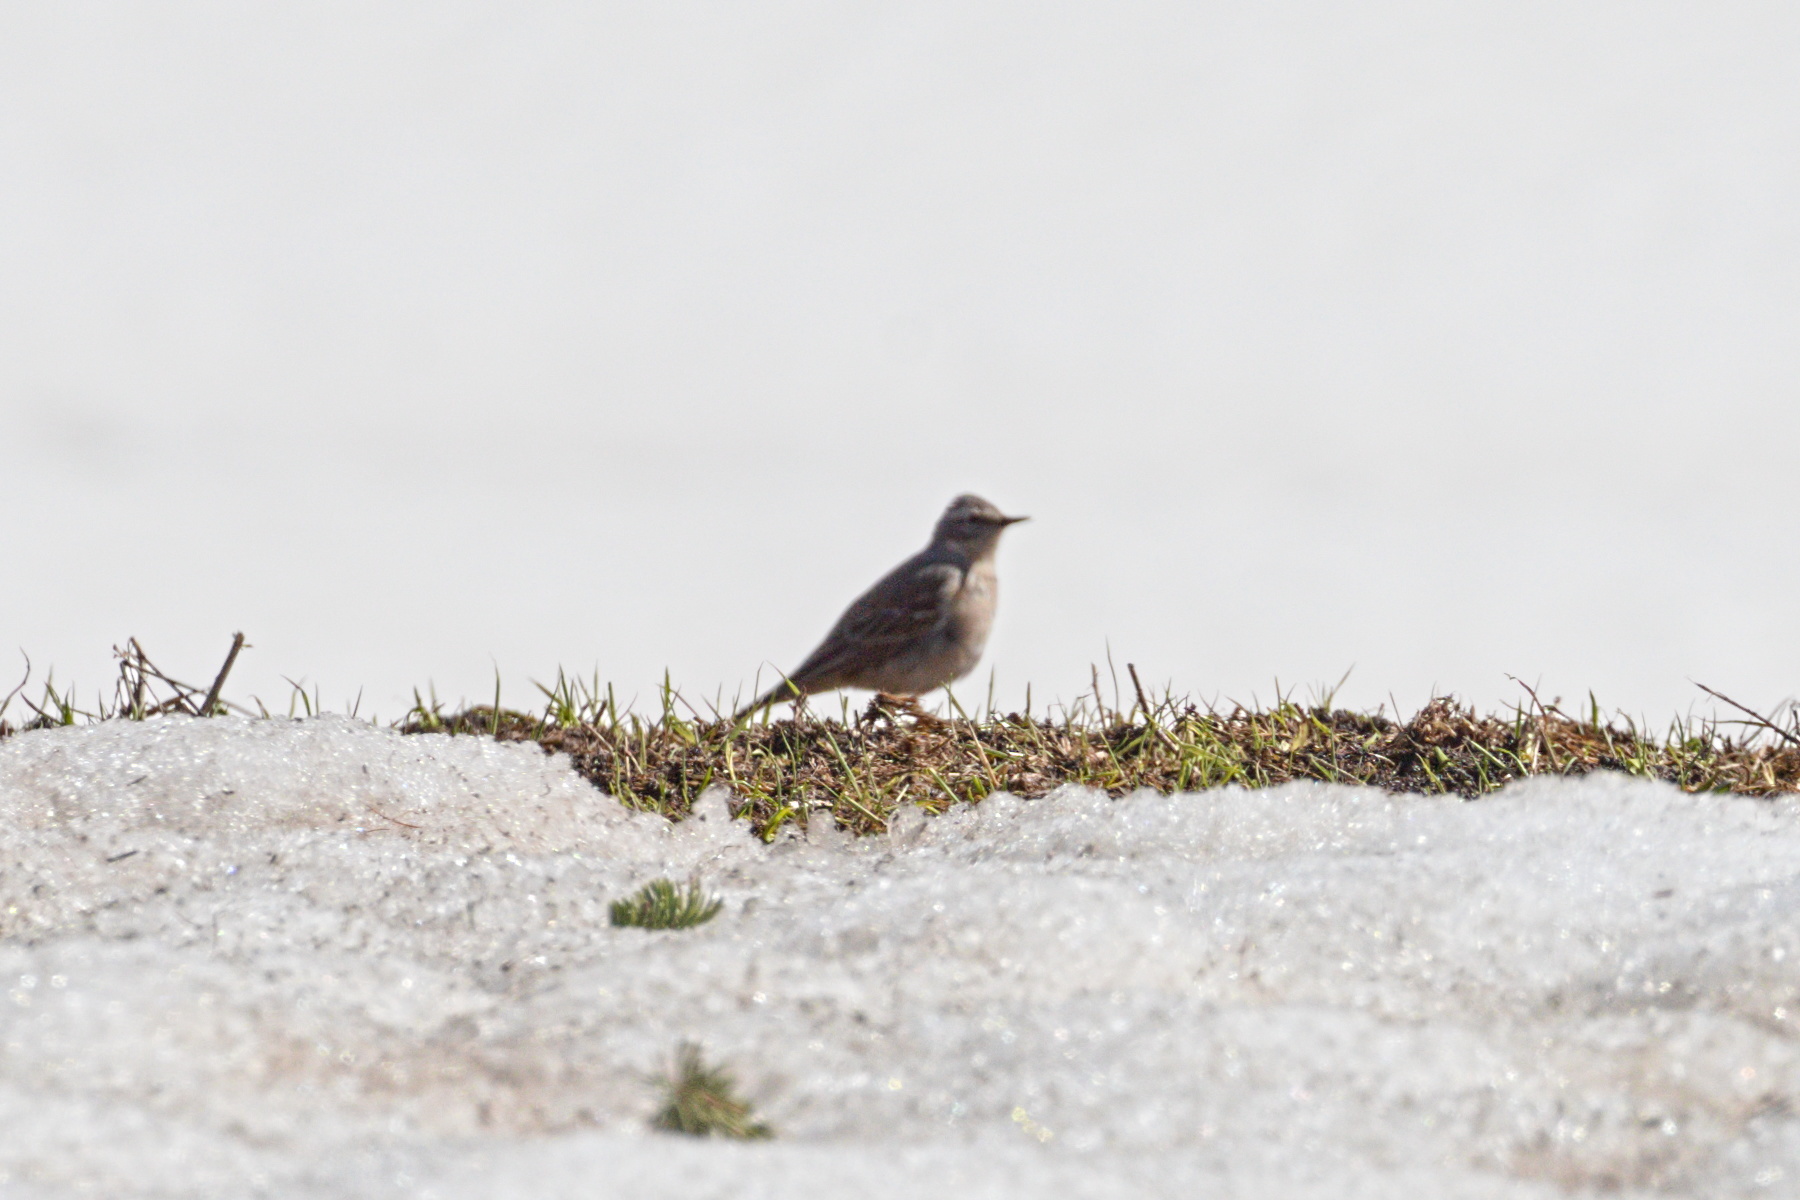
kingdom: Animalia
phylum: Chordata
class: Aves
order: Passeriformes
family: Motacillidae
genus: Anthus
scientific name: Anthus spinoletta
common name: Water pipit
